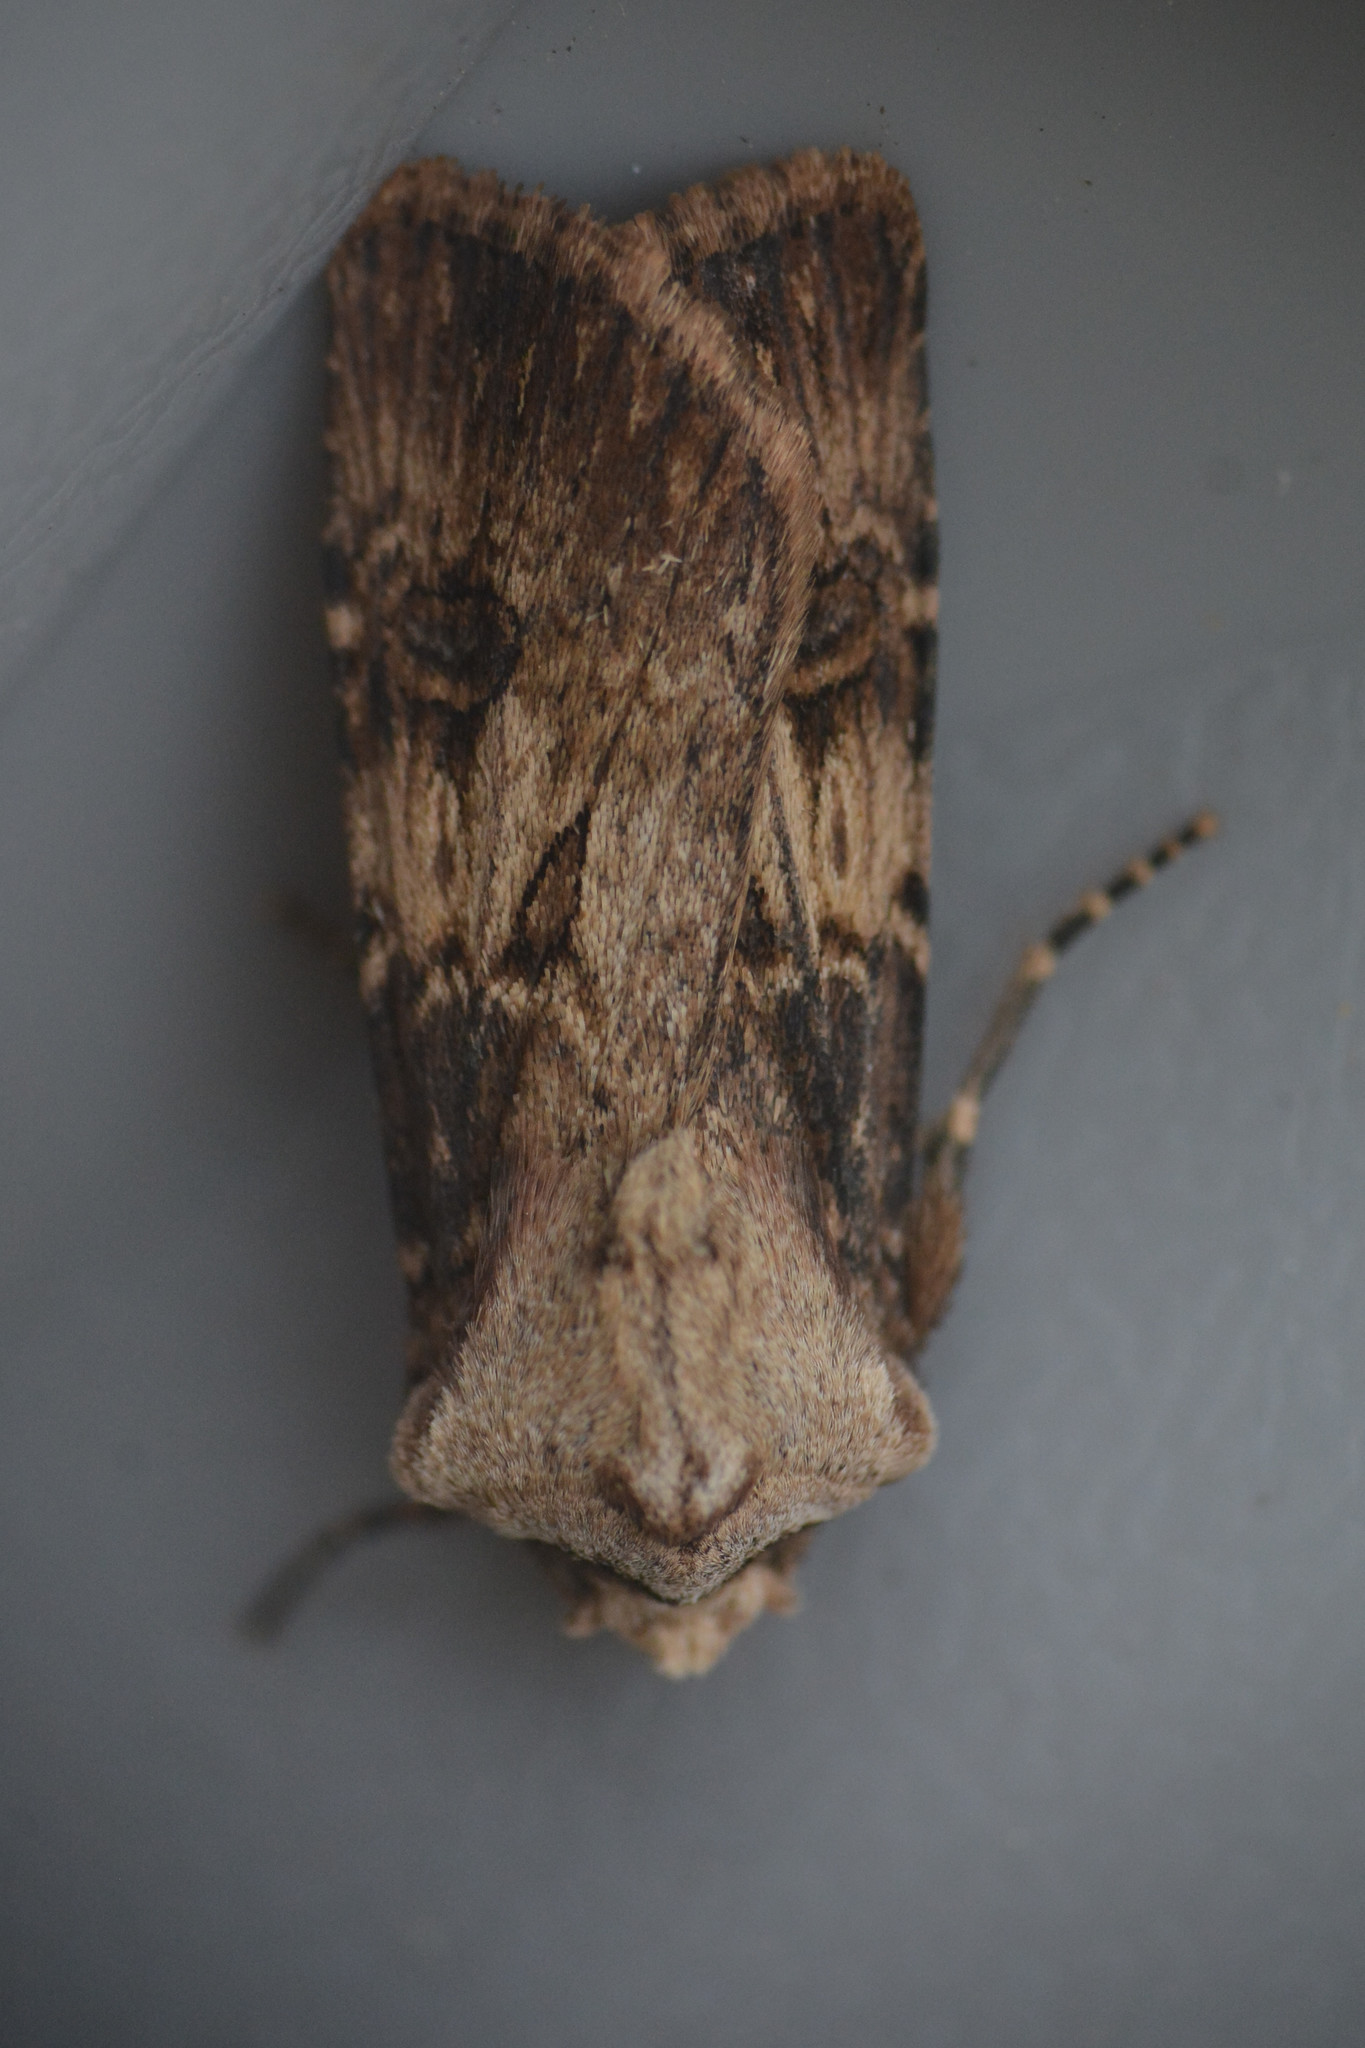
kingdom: Animalia
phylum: Arthropoda
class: Insecta
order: Lepidoptera
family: Noctuidae
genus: Agrotis
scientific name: Agrotis puta
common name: Shuttle-shaped dart
